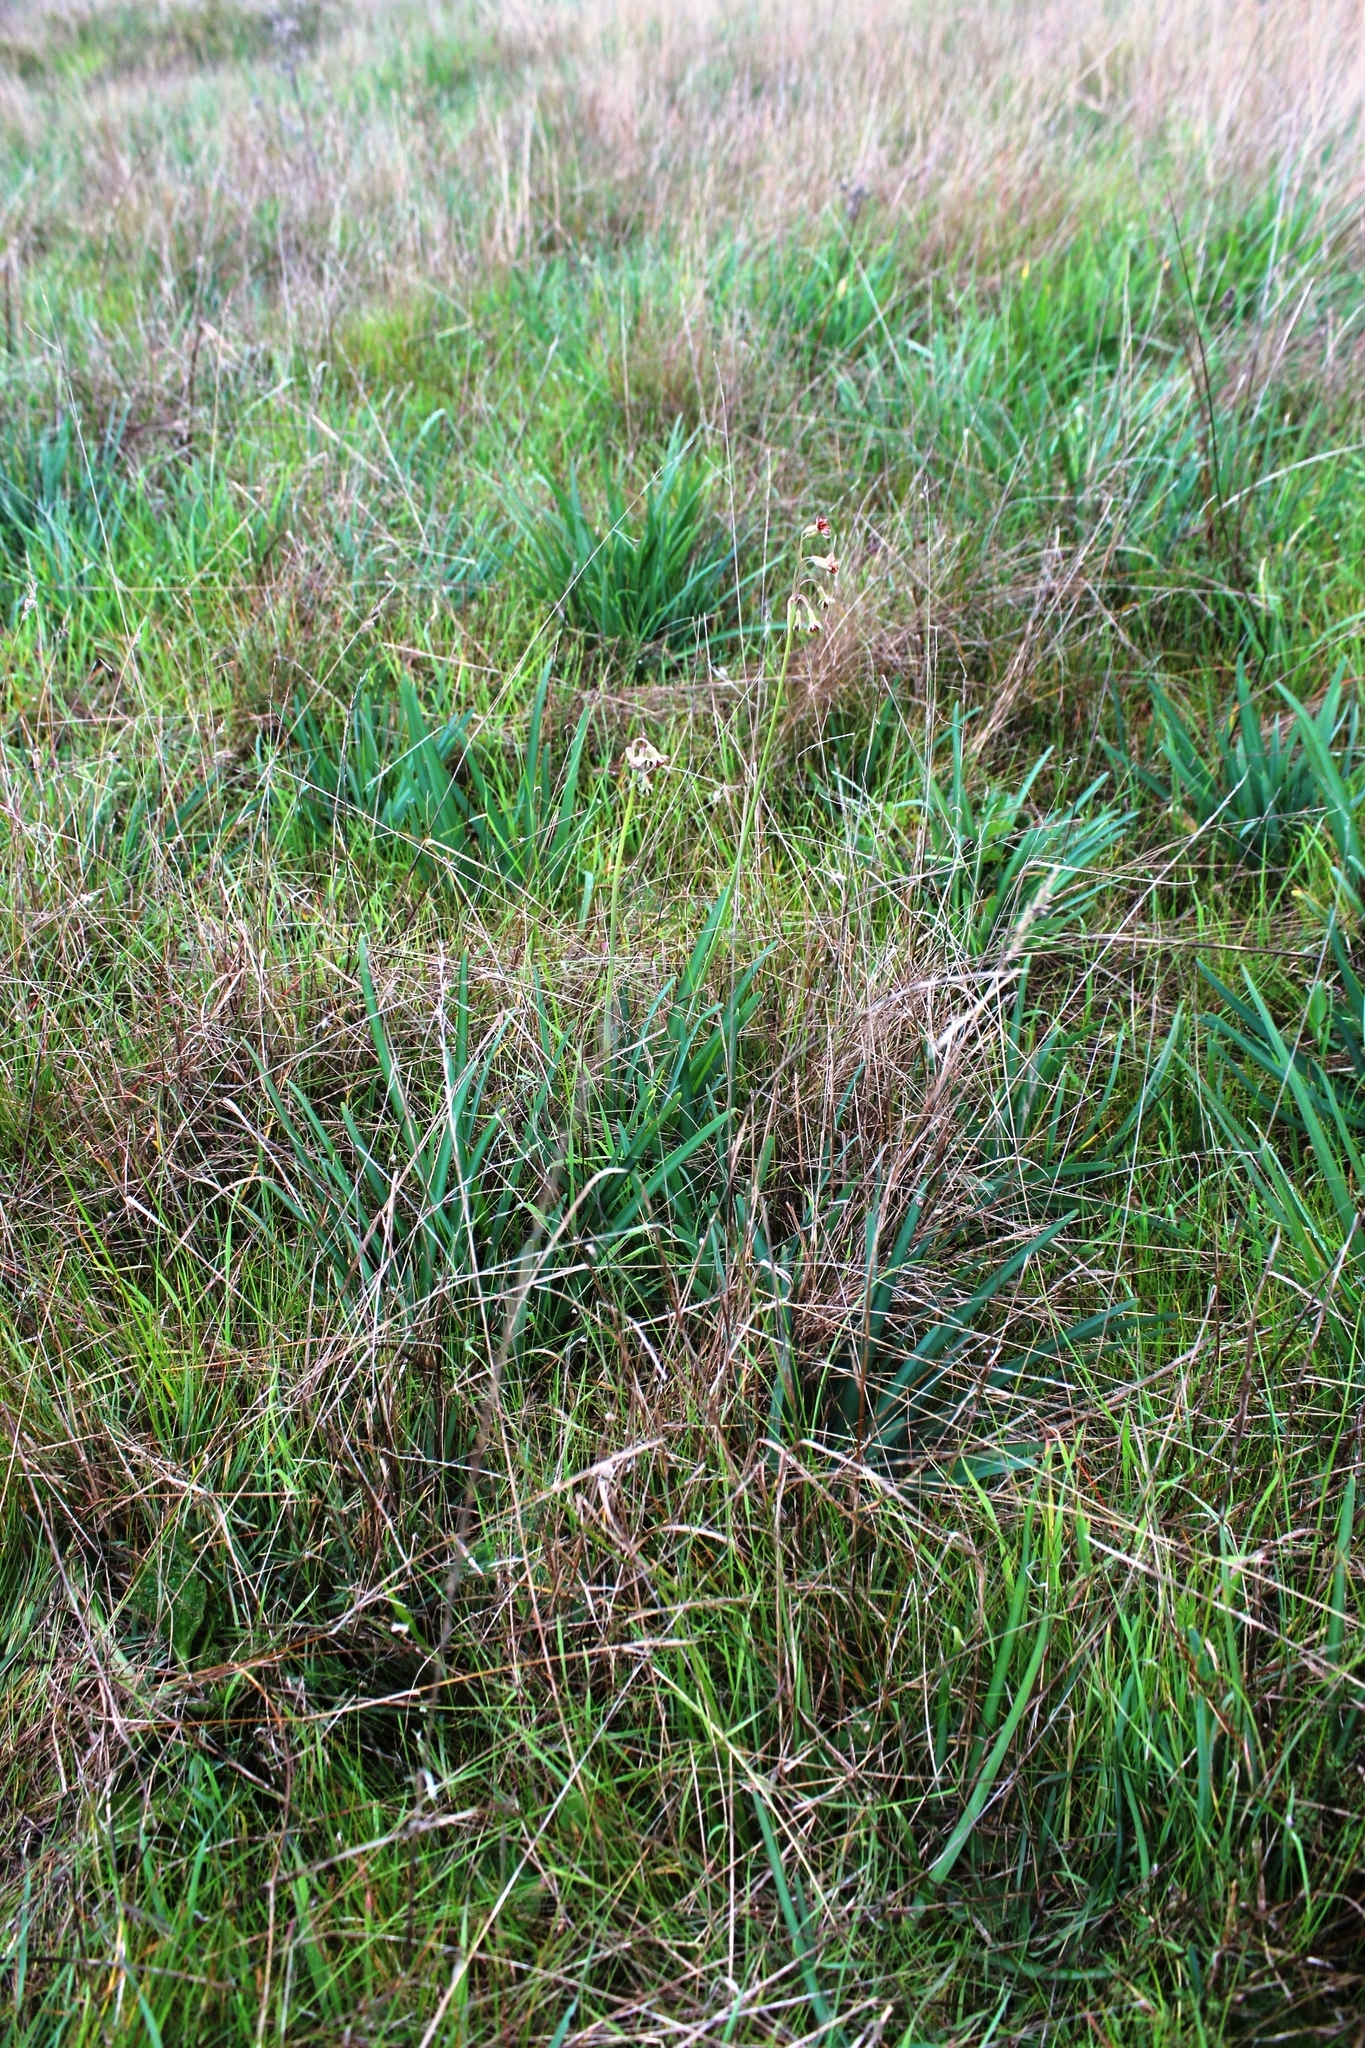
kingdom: Plantae
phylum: Tracheophyta
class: Liliopsida
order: Asparagales
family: Amaryllidaceae
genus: Tulbaghia
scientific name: Tulbaghia capensis
